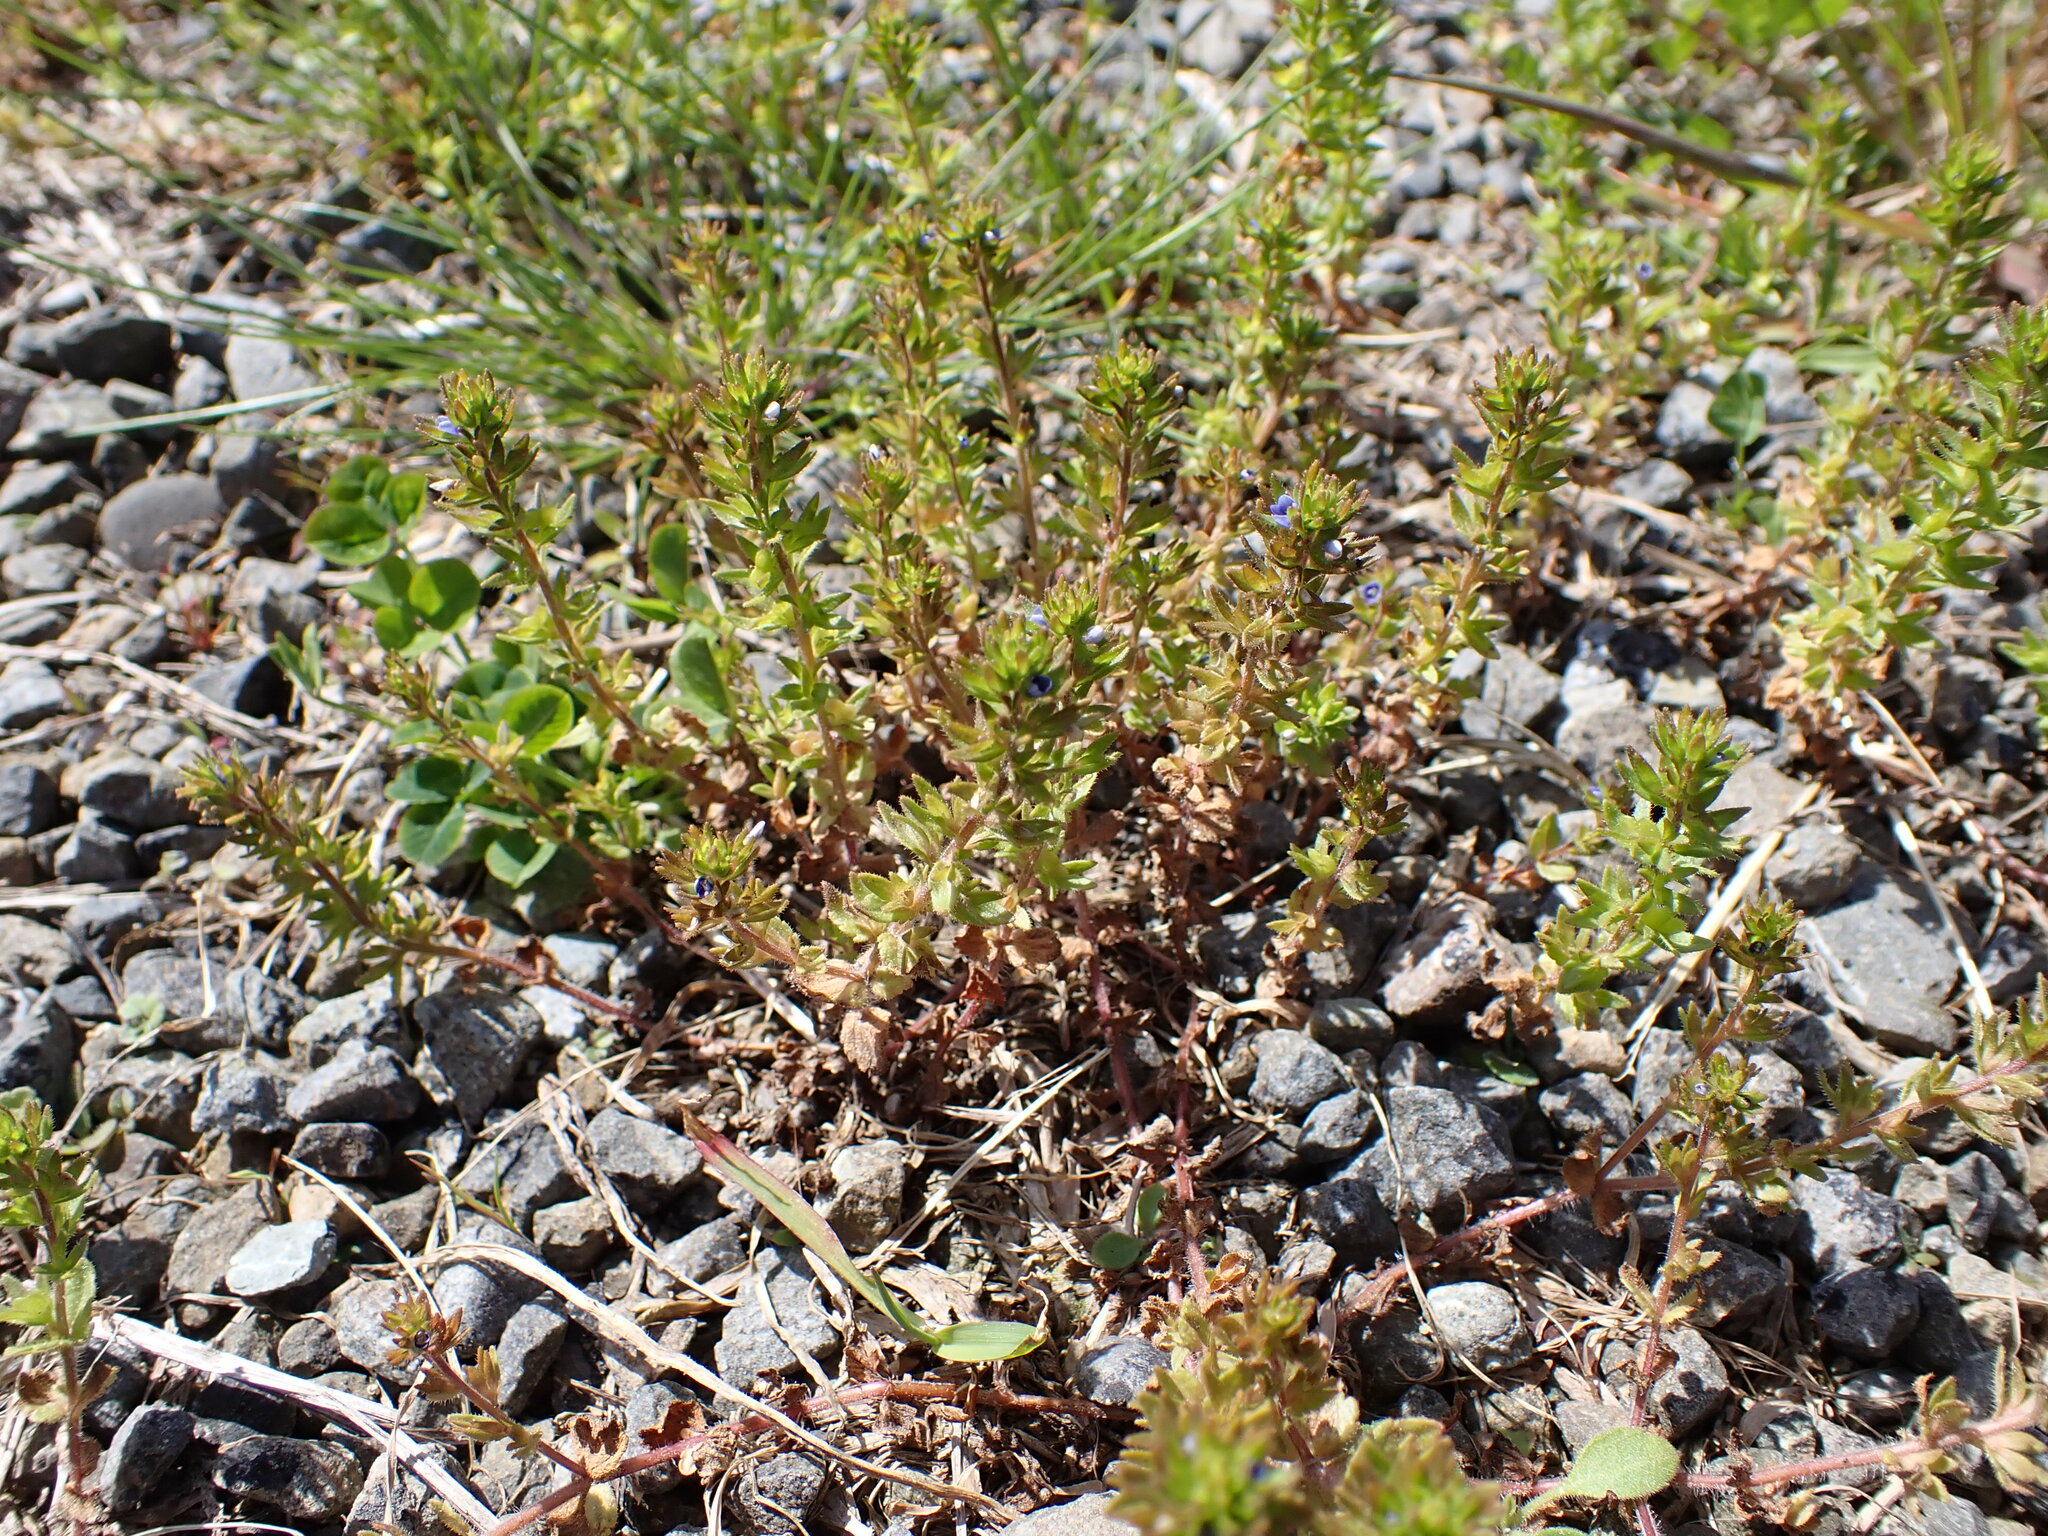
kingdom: Plantae
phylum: Tracheophyta
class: Magnoliopsida
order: Lamiales
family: Plantaginaceae
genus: Veronica
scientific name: Veronica arvensis
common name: Corn speedwell
